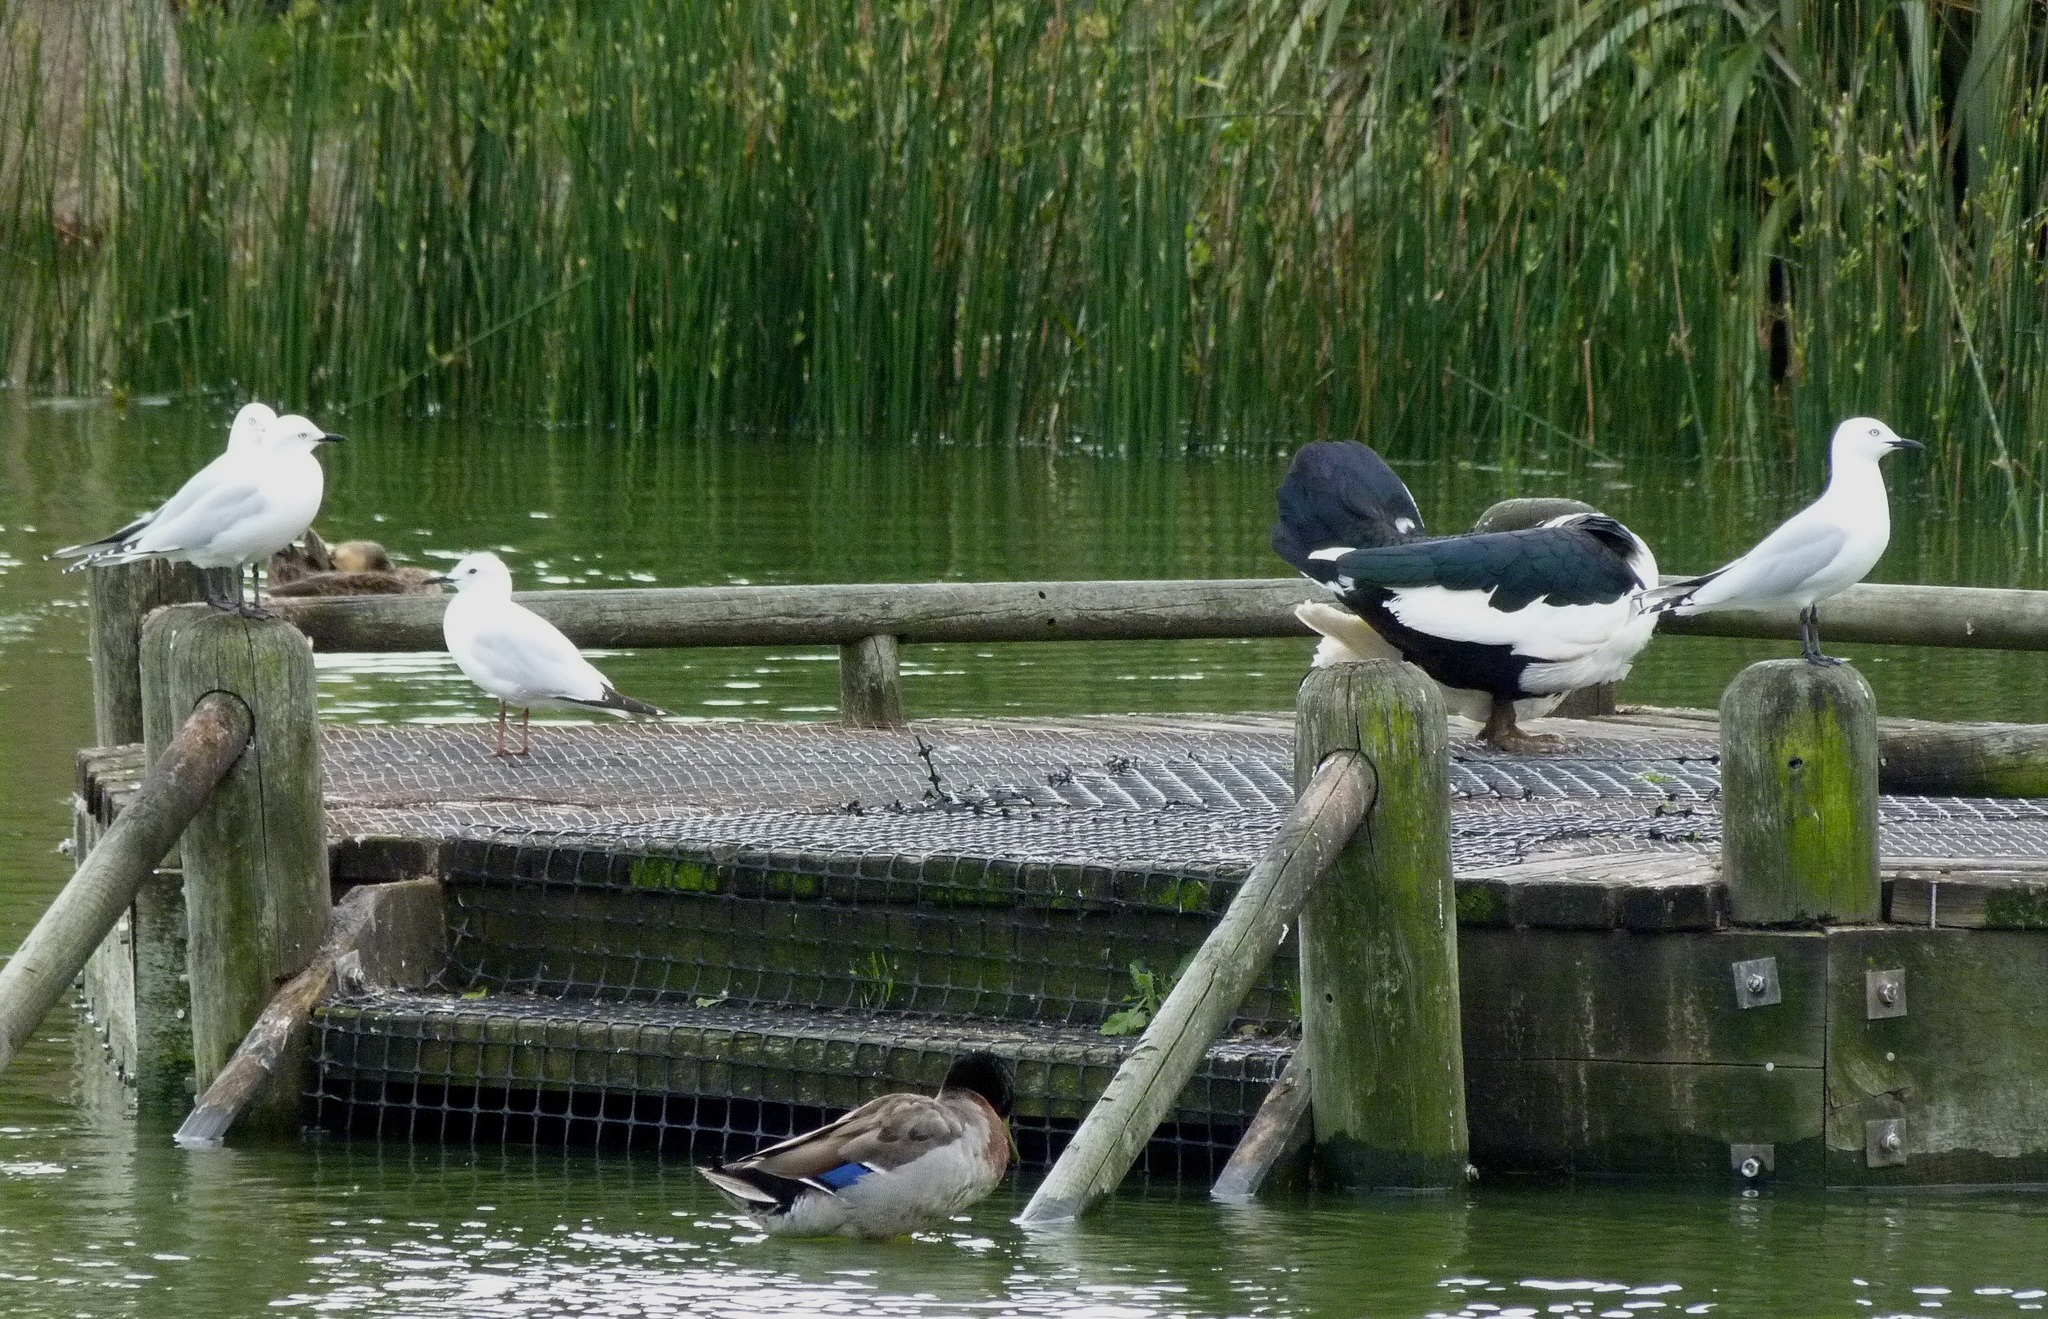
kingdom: Animalia
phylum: Chordata
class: Aves
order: Charadriiformes
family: Laridae
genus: Chroicocephalus
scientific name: Chroicocephalus bulleri
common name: Black-billed gull
